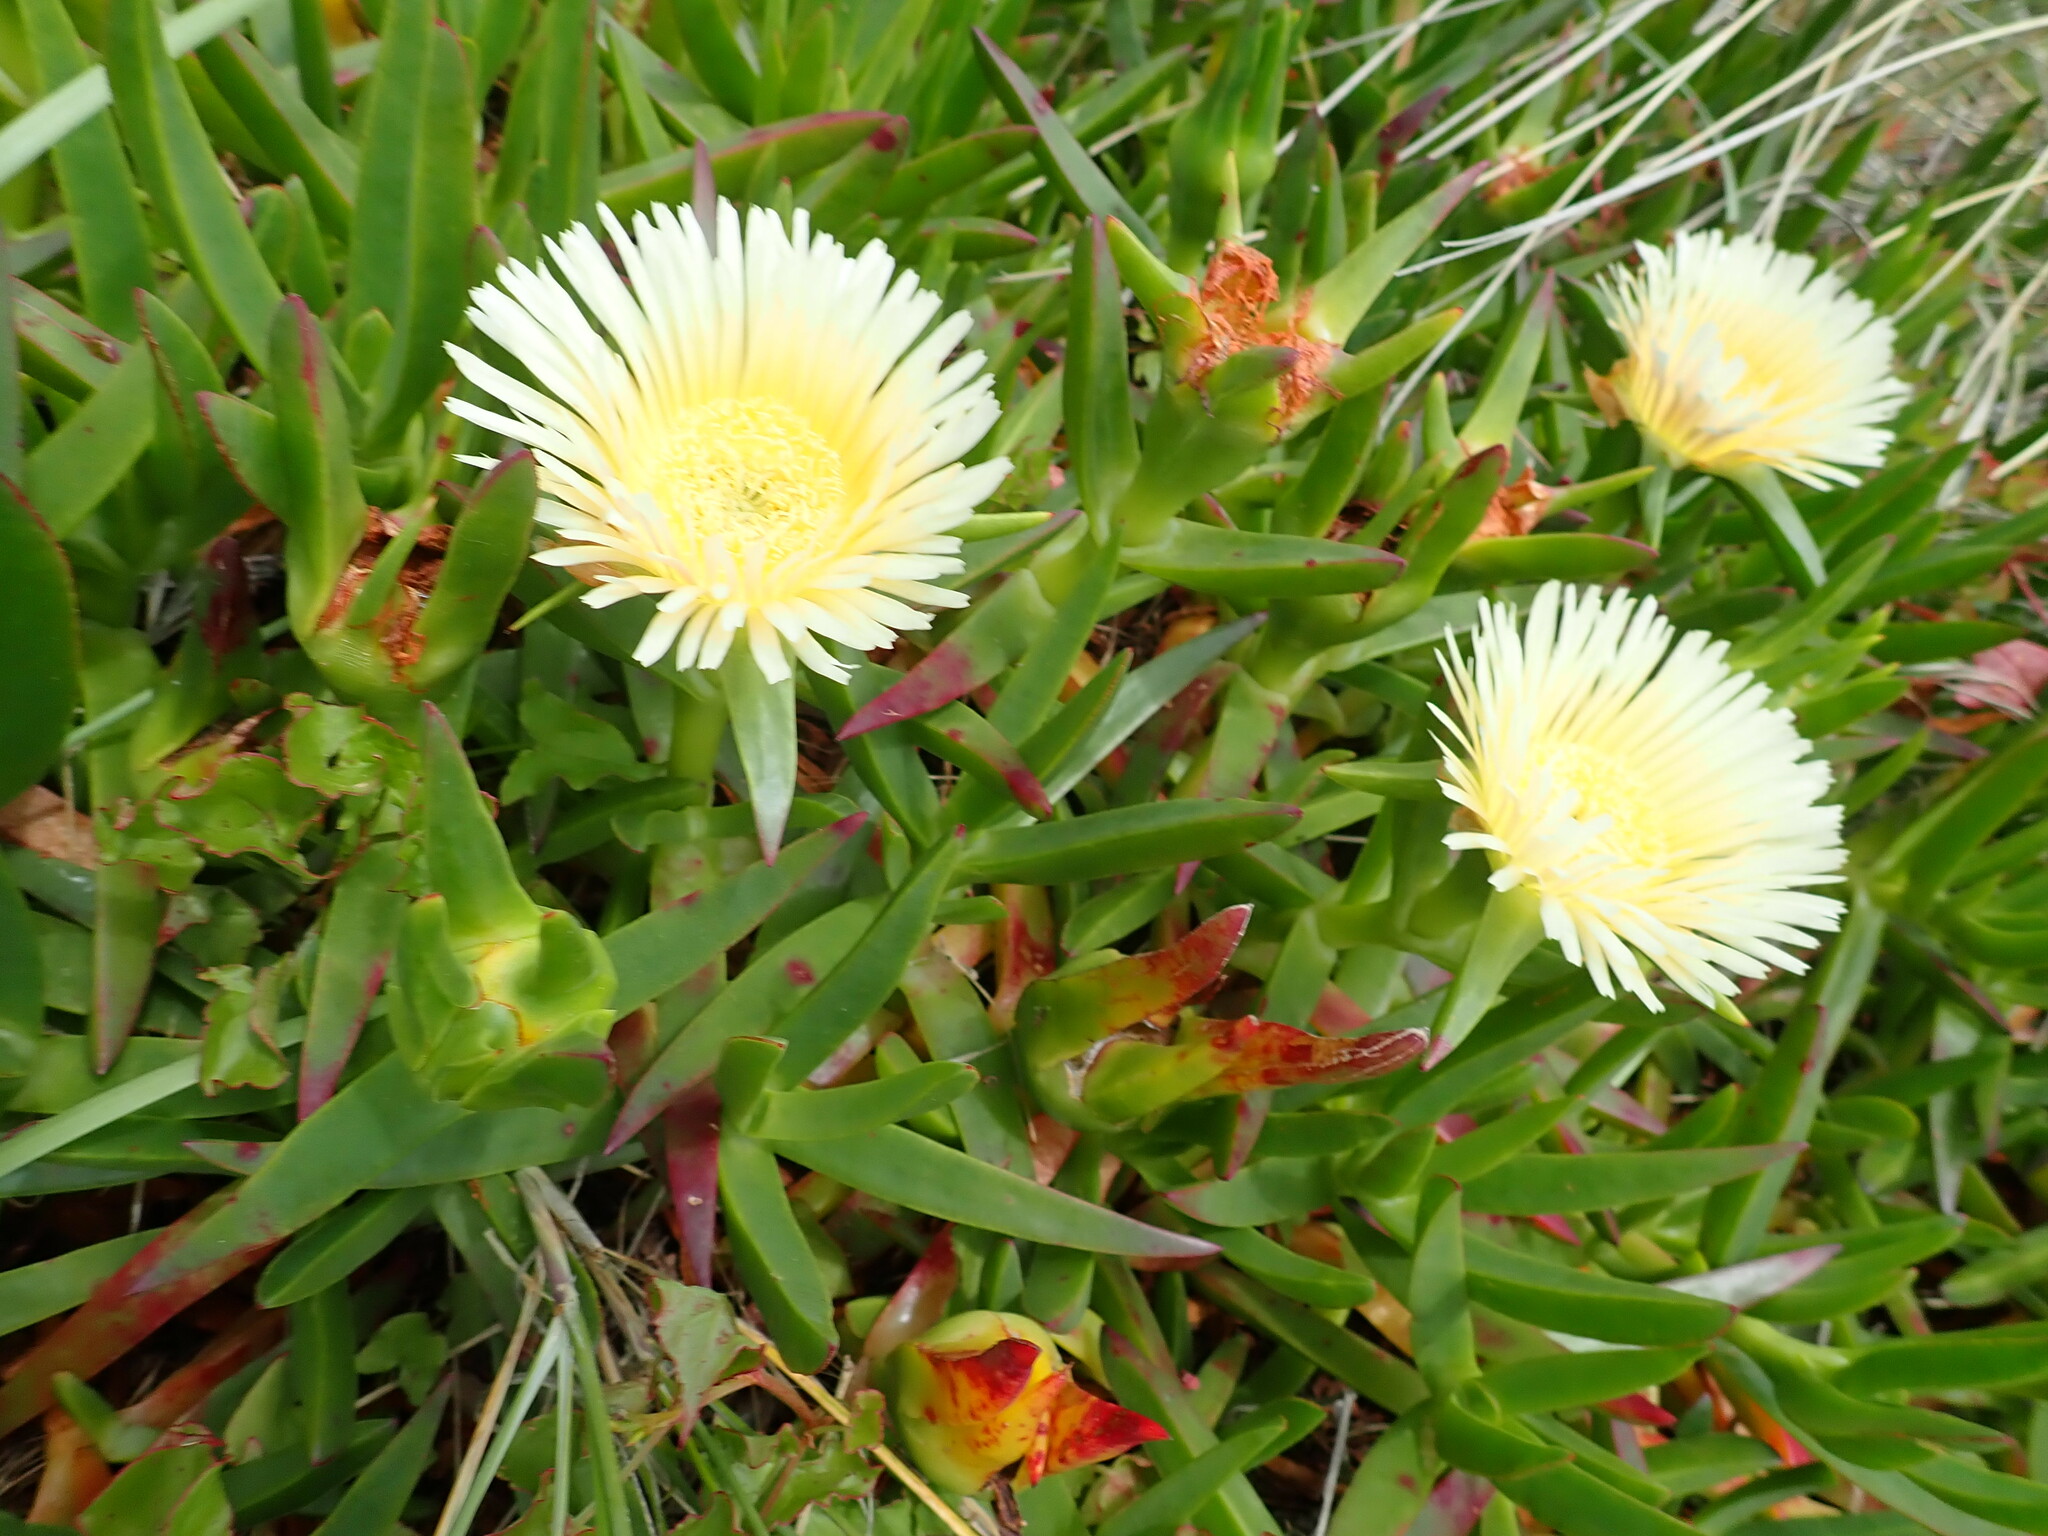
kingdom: Plantae
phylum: Tracheophyta
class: Magnoliopsida
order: Caryophyllales
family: Aizoaceae
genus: Carpobrotus
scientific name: Carpobrotus edulis
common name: Hottentot-fig
